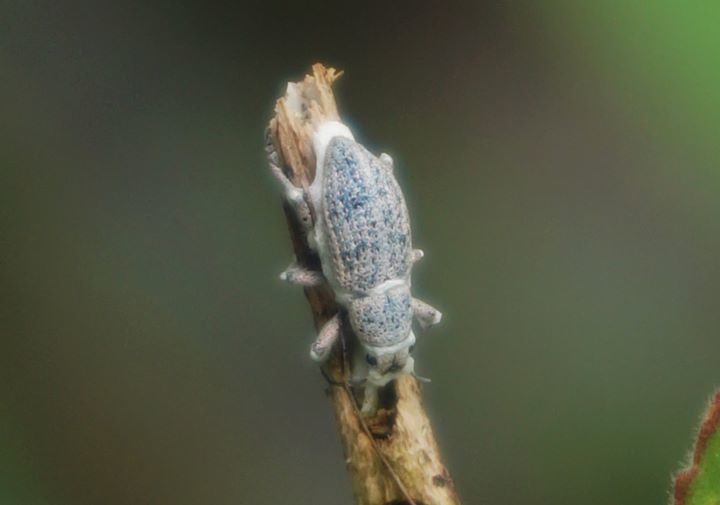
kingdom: Animalia
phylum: Arthropoda
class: Insecta
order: Coleoptera
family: Curculionidae
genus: Artipus
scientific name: Artipus floridanus
